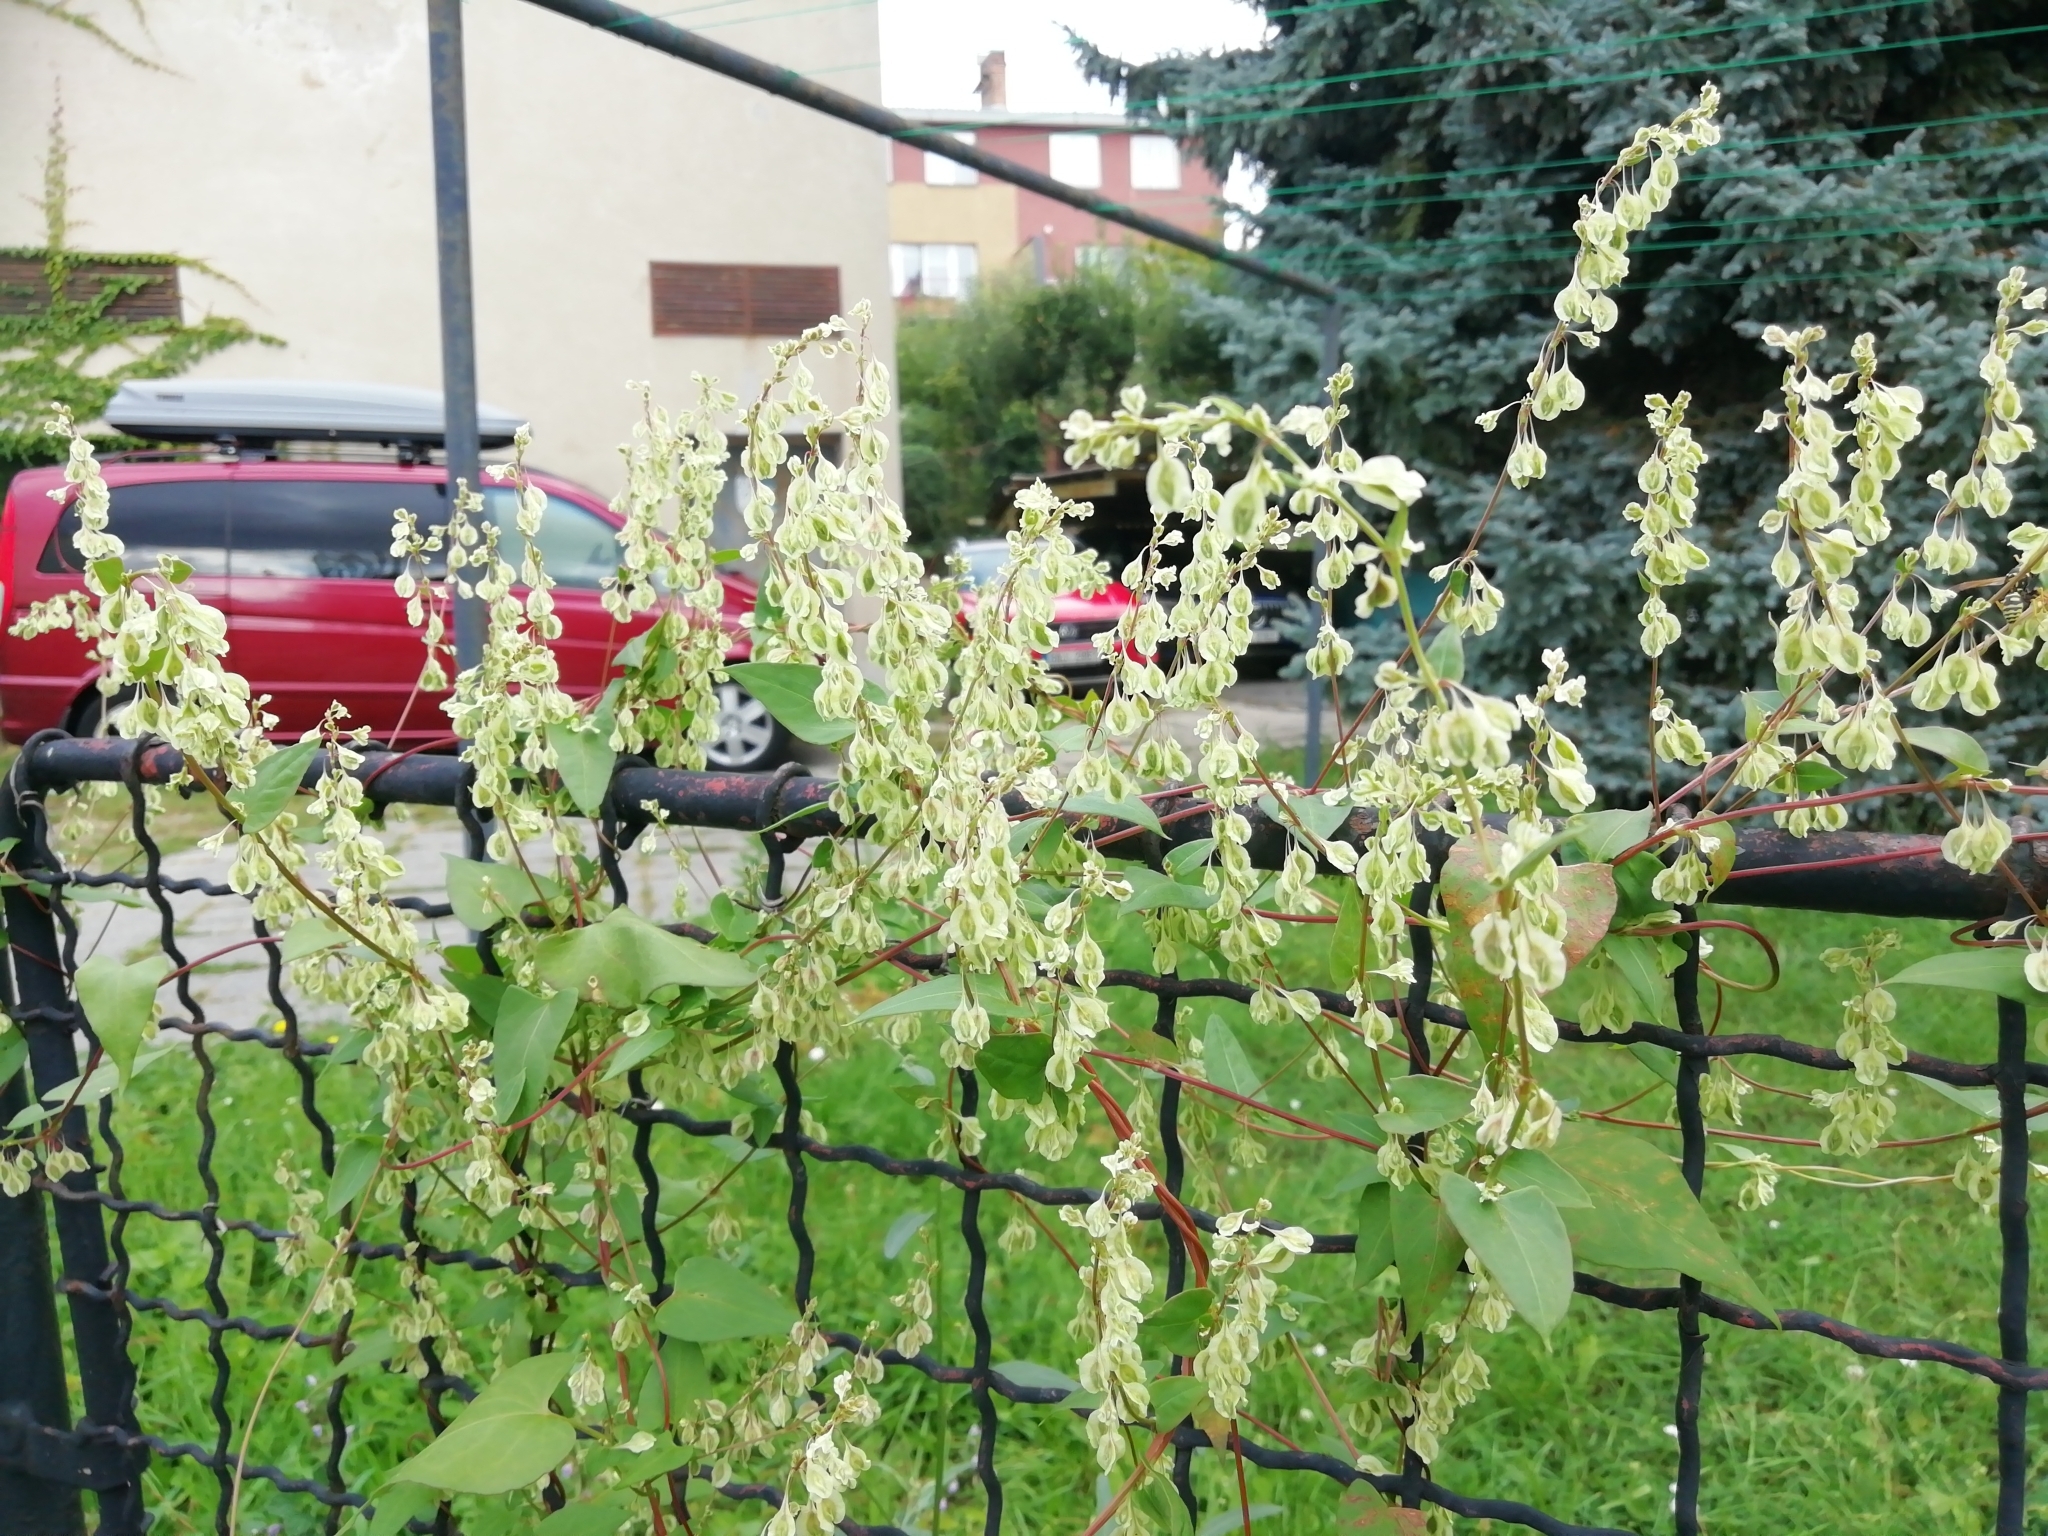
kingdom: Plantae
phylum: Tracheophyta
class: Magnoliopsida
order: Caryophyllales
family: Polygonaceae
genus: Fallopia
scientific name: Fallopia dumetorum
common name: Copse-bindweed
